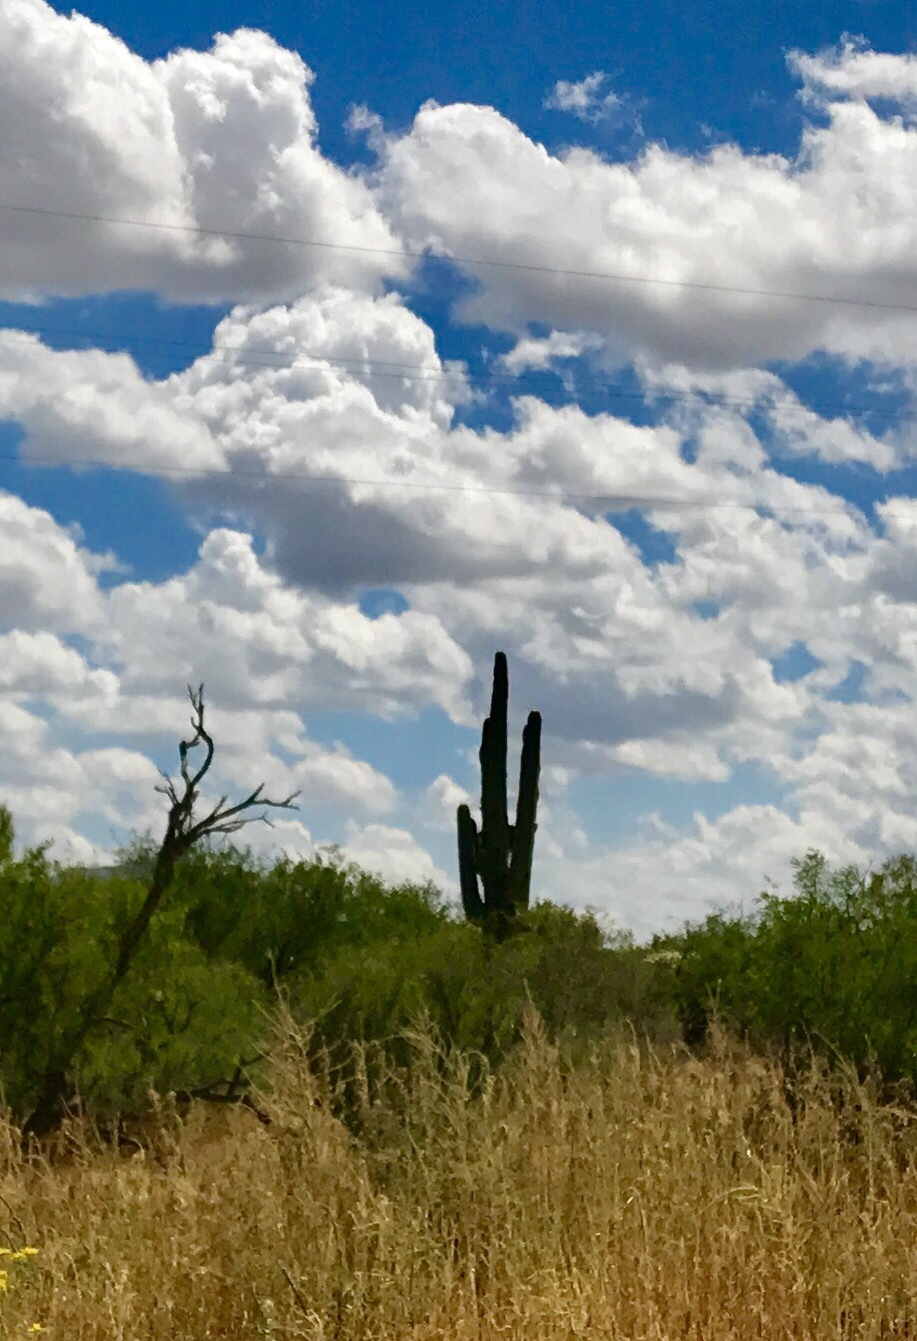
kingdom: Plantae
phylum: Tracheophyta
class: Magnoliopsida
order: Caryophyllales
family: Cactaceae
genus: Carnegiea
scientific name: Carnegiea gigantea
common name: Saguaro
